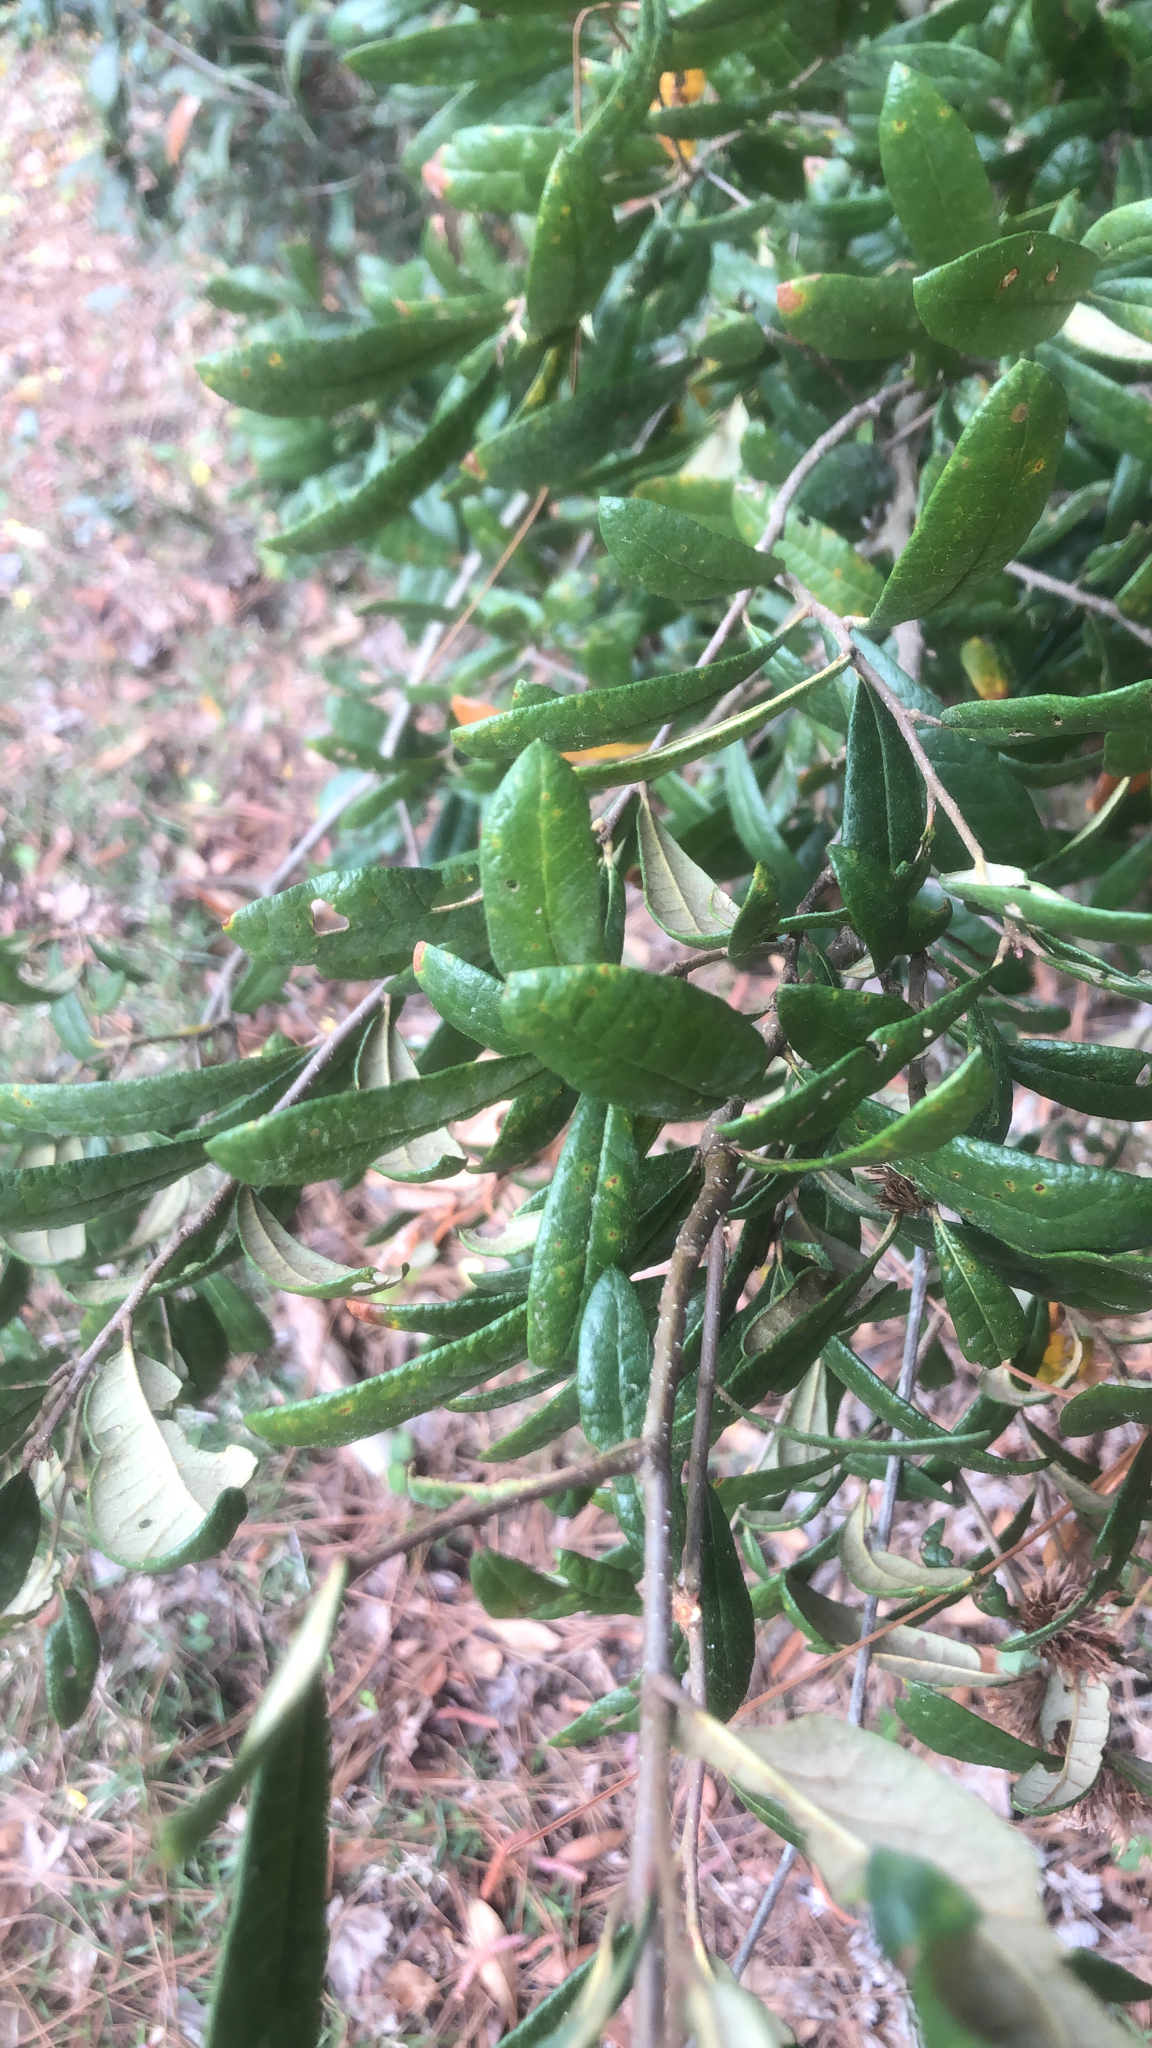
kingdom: Plantae
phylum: Tracheophyta
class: Magnoliopsida
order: Fagales
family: Fagaceae
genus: Quercus
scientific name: Quercus geminata
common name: Sand live oak
